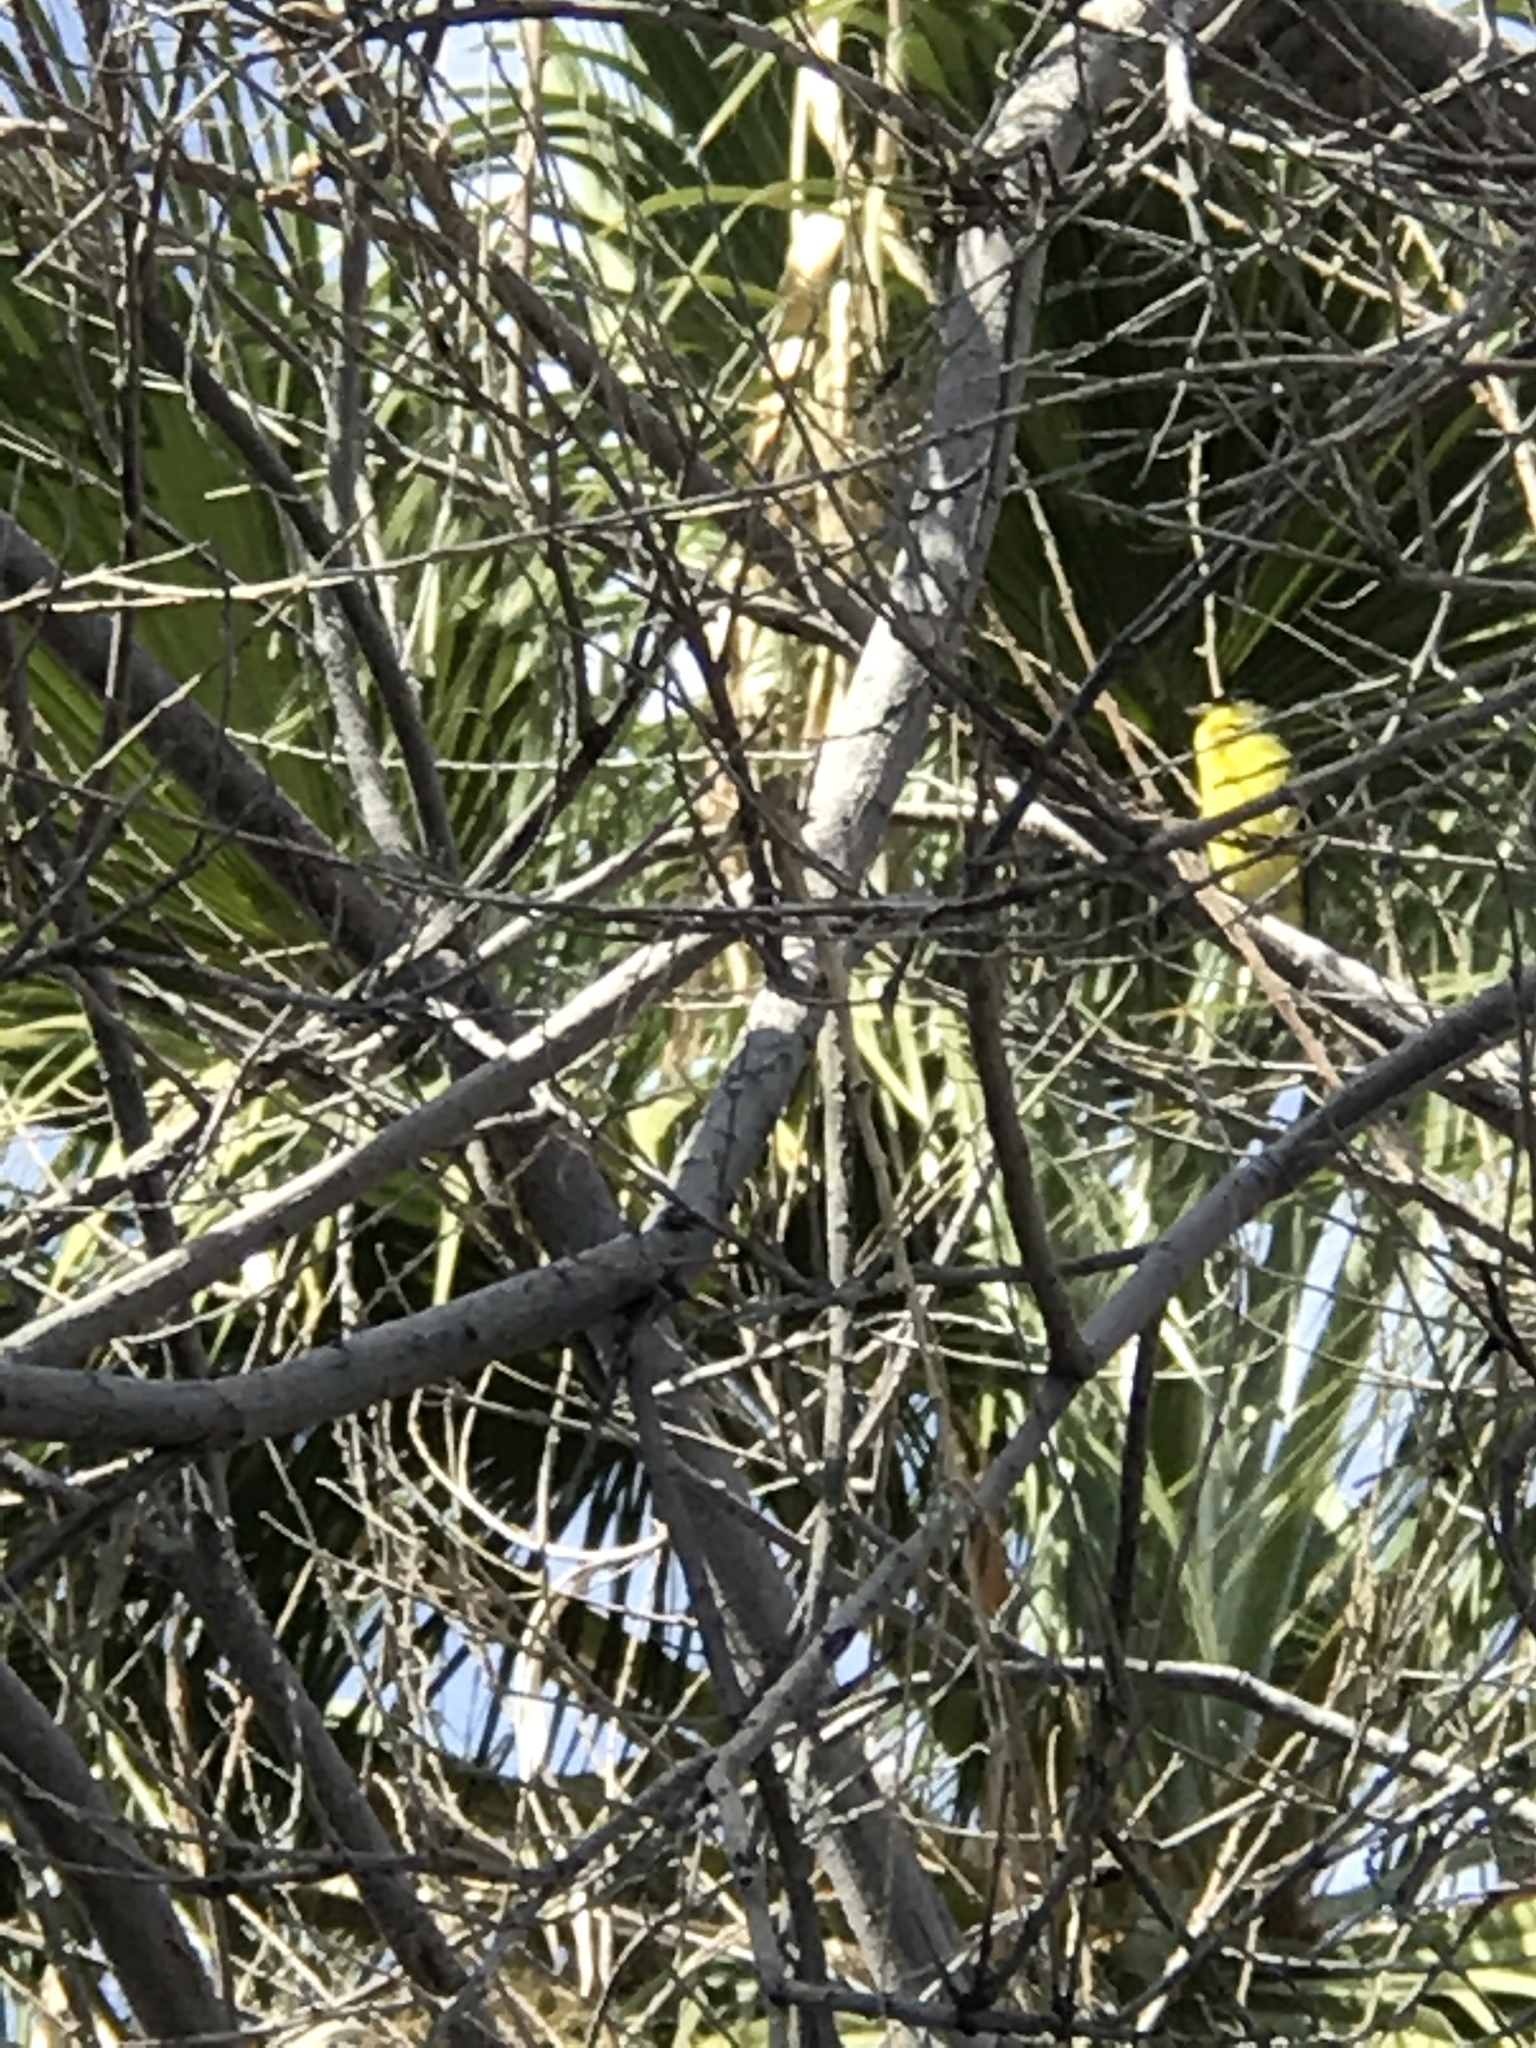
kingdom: Animalia
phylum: Chordata
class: Aves
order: Passeriformes
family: Fringillidae
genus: Spinus
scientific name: Spinus psaltria
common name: Lesser goldfinch
